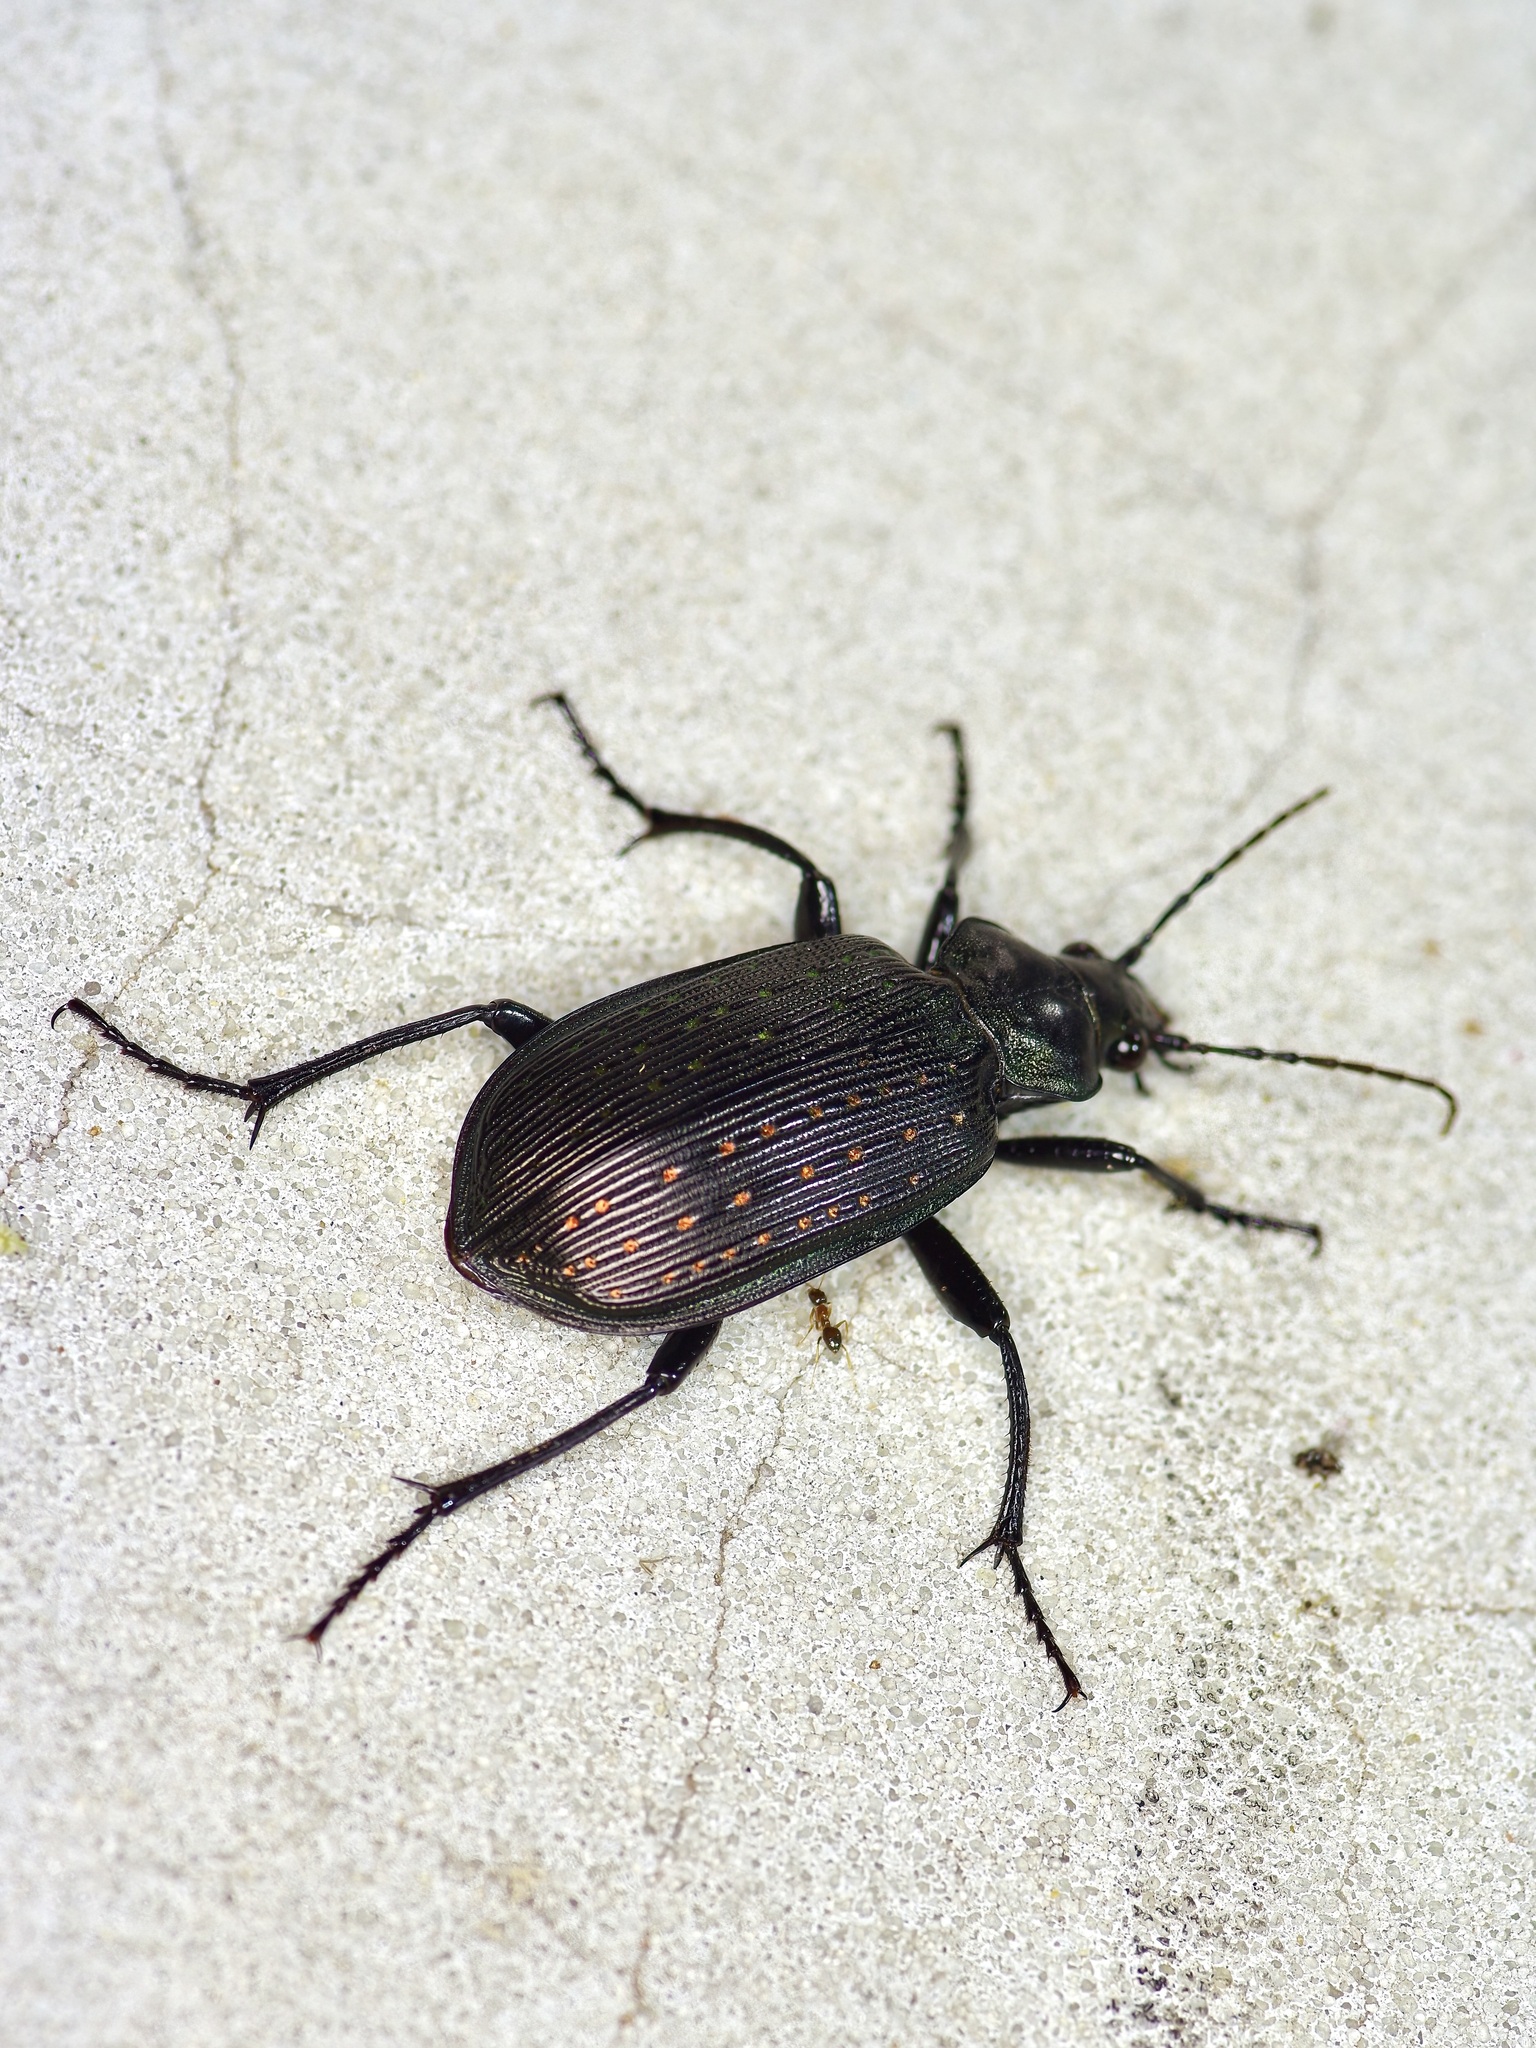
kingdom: Animalia
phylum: Arthropoda
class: Insecta
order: Coleoptera
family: Carabidae
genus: Calosoma
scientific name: Calosoma sayi
